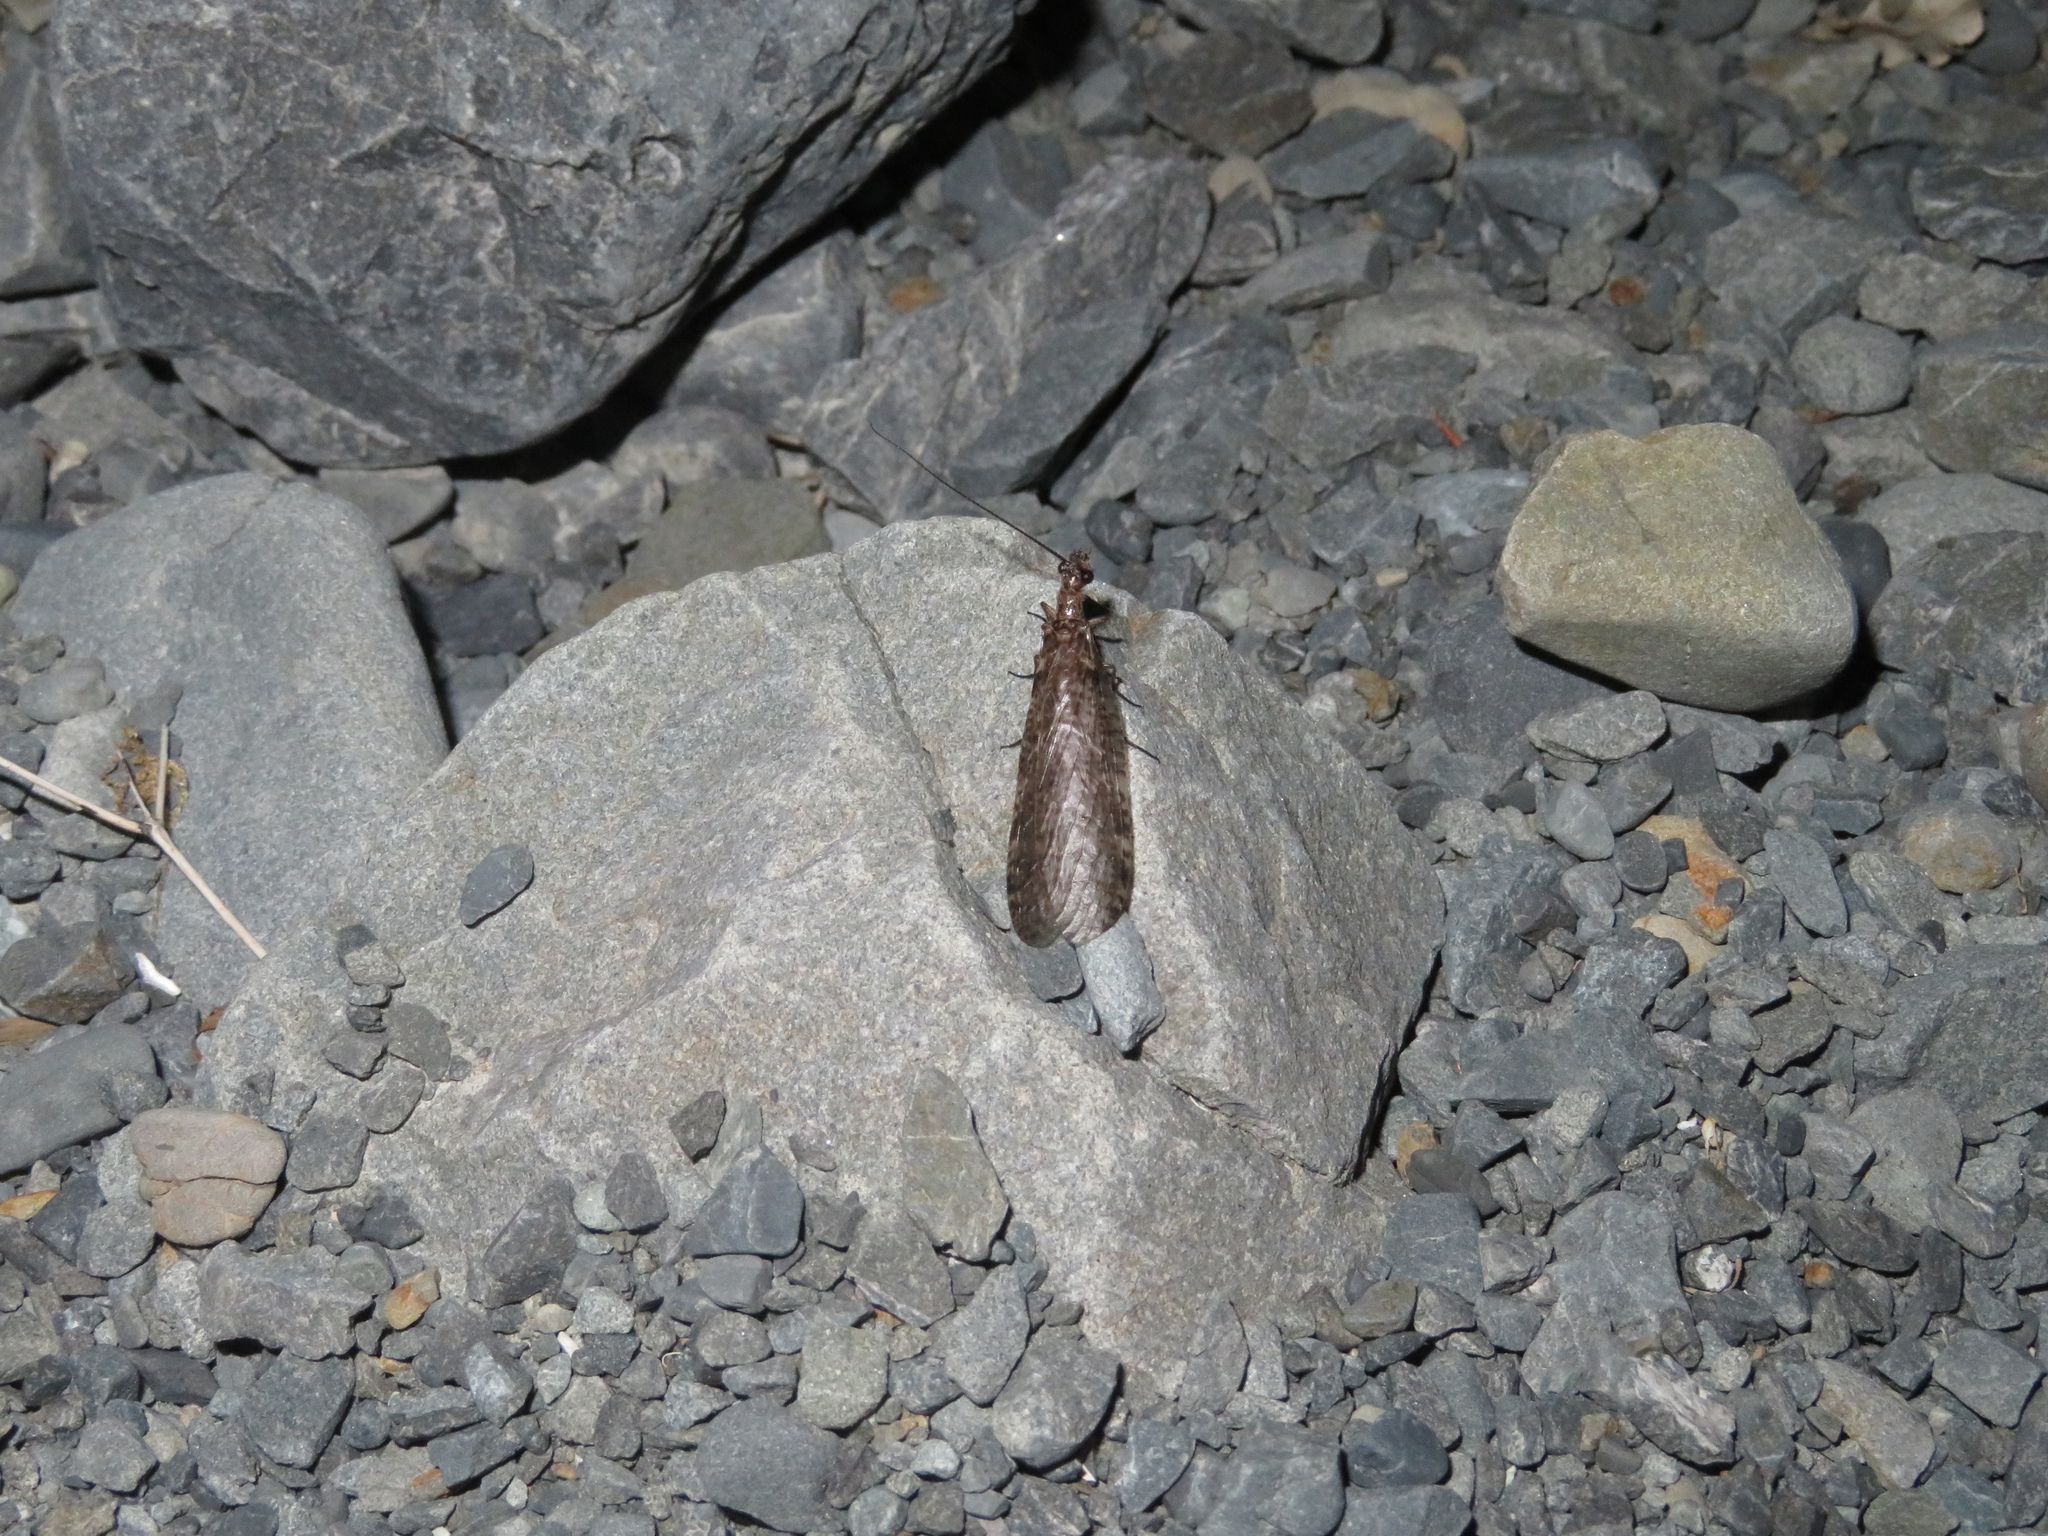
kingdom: Animalia
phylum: Arthropoda
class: Insecta
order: Megaloptera
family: Corydalidae
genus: Archichauliodes
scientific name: Archichauliodes diversus
